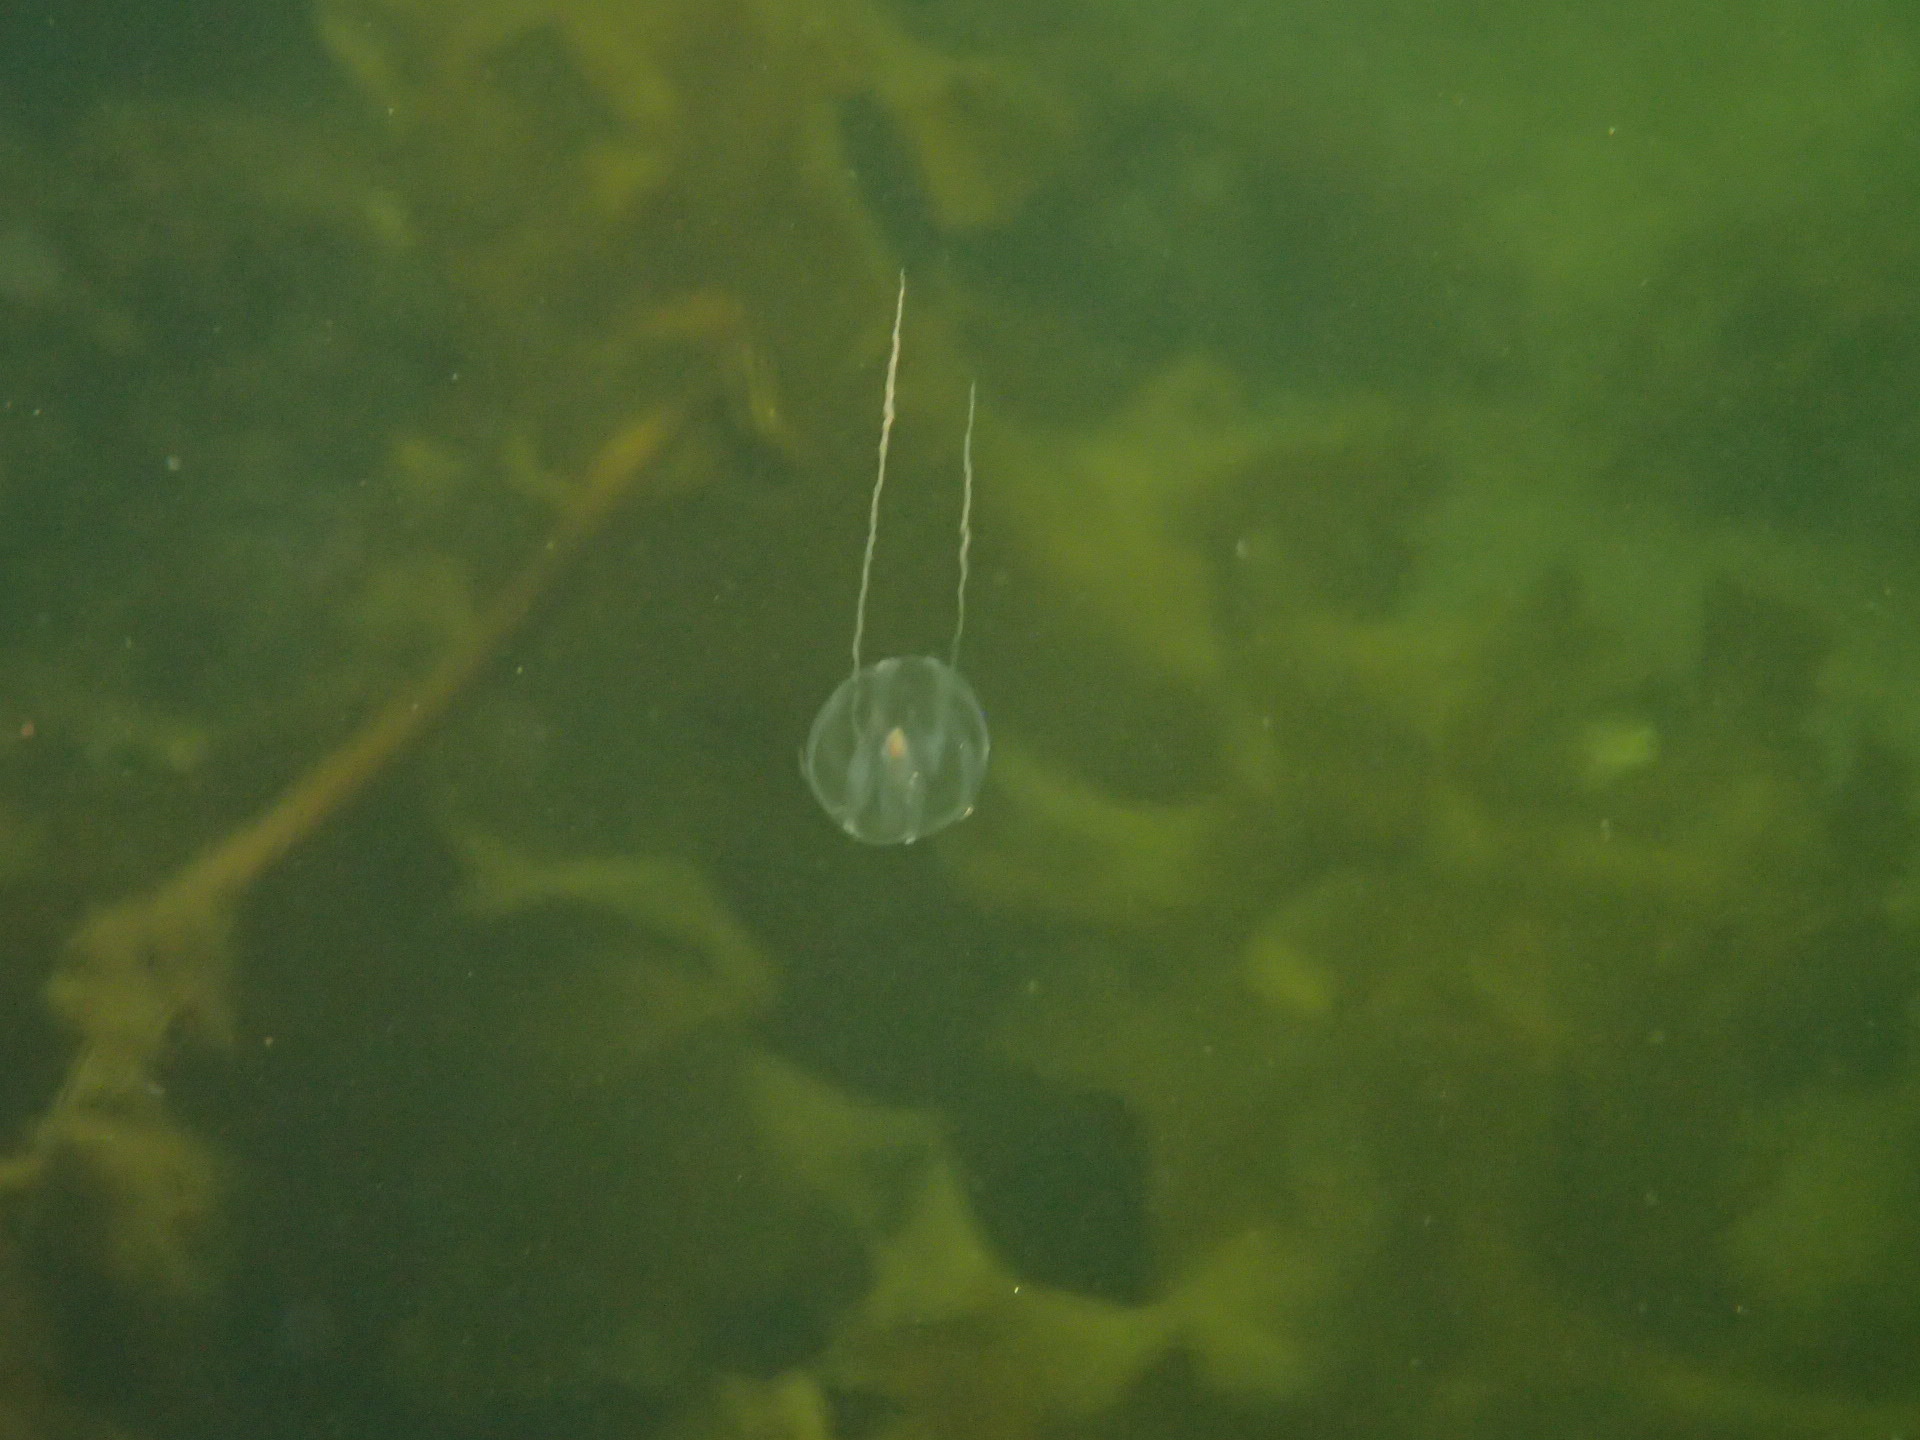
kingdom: Animalia
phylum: Ctenophora
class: Tentaculata
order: Cydippida
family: Pleurobrachiidae
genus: Pleurobrachia
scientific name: Pleurobrachia pileus
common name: Sea gooseberry
